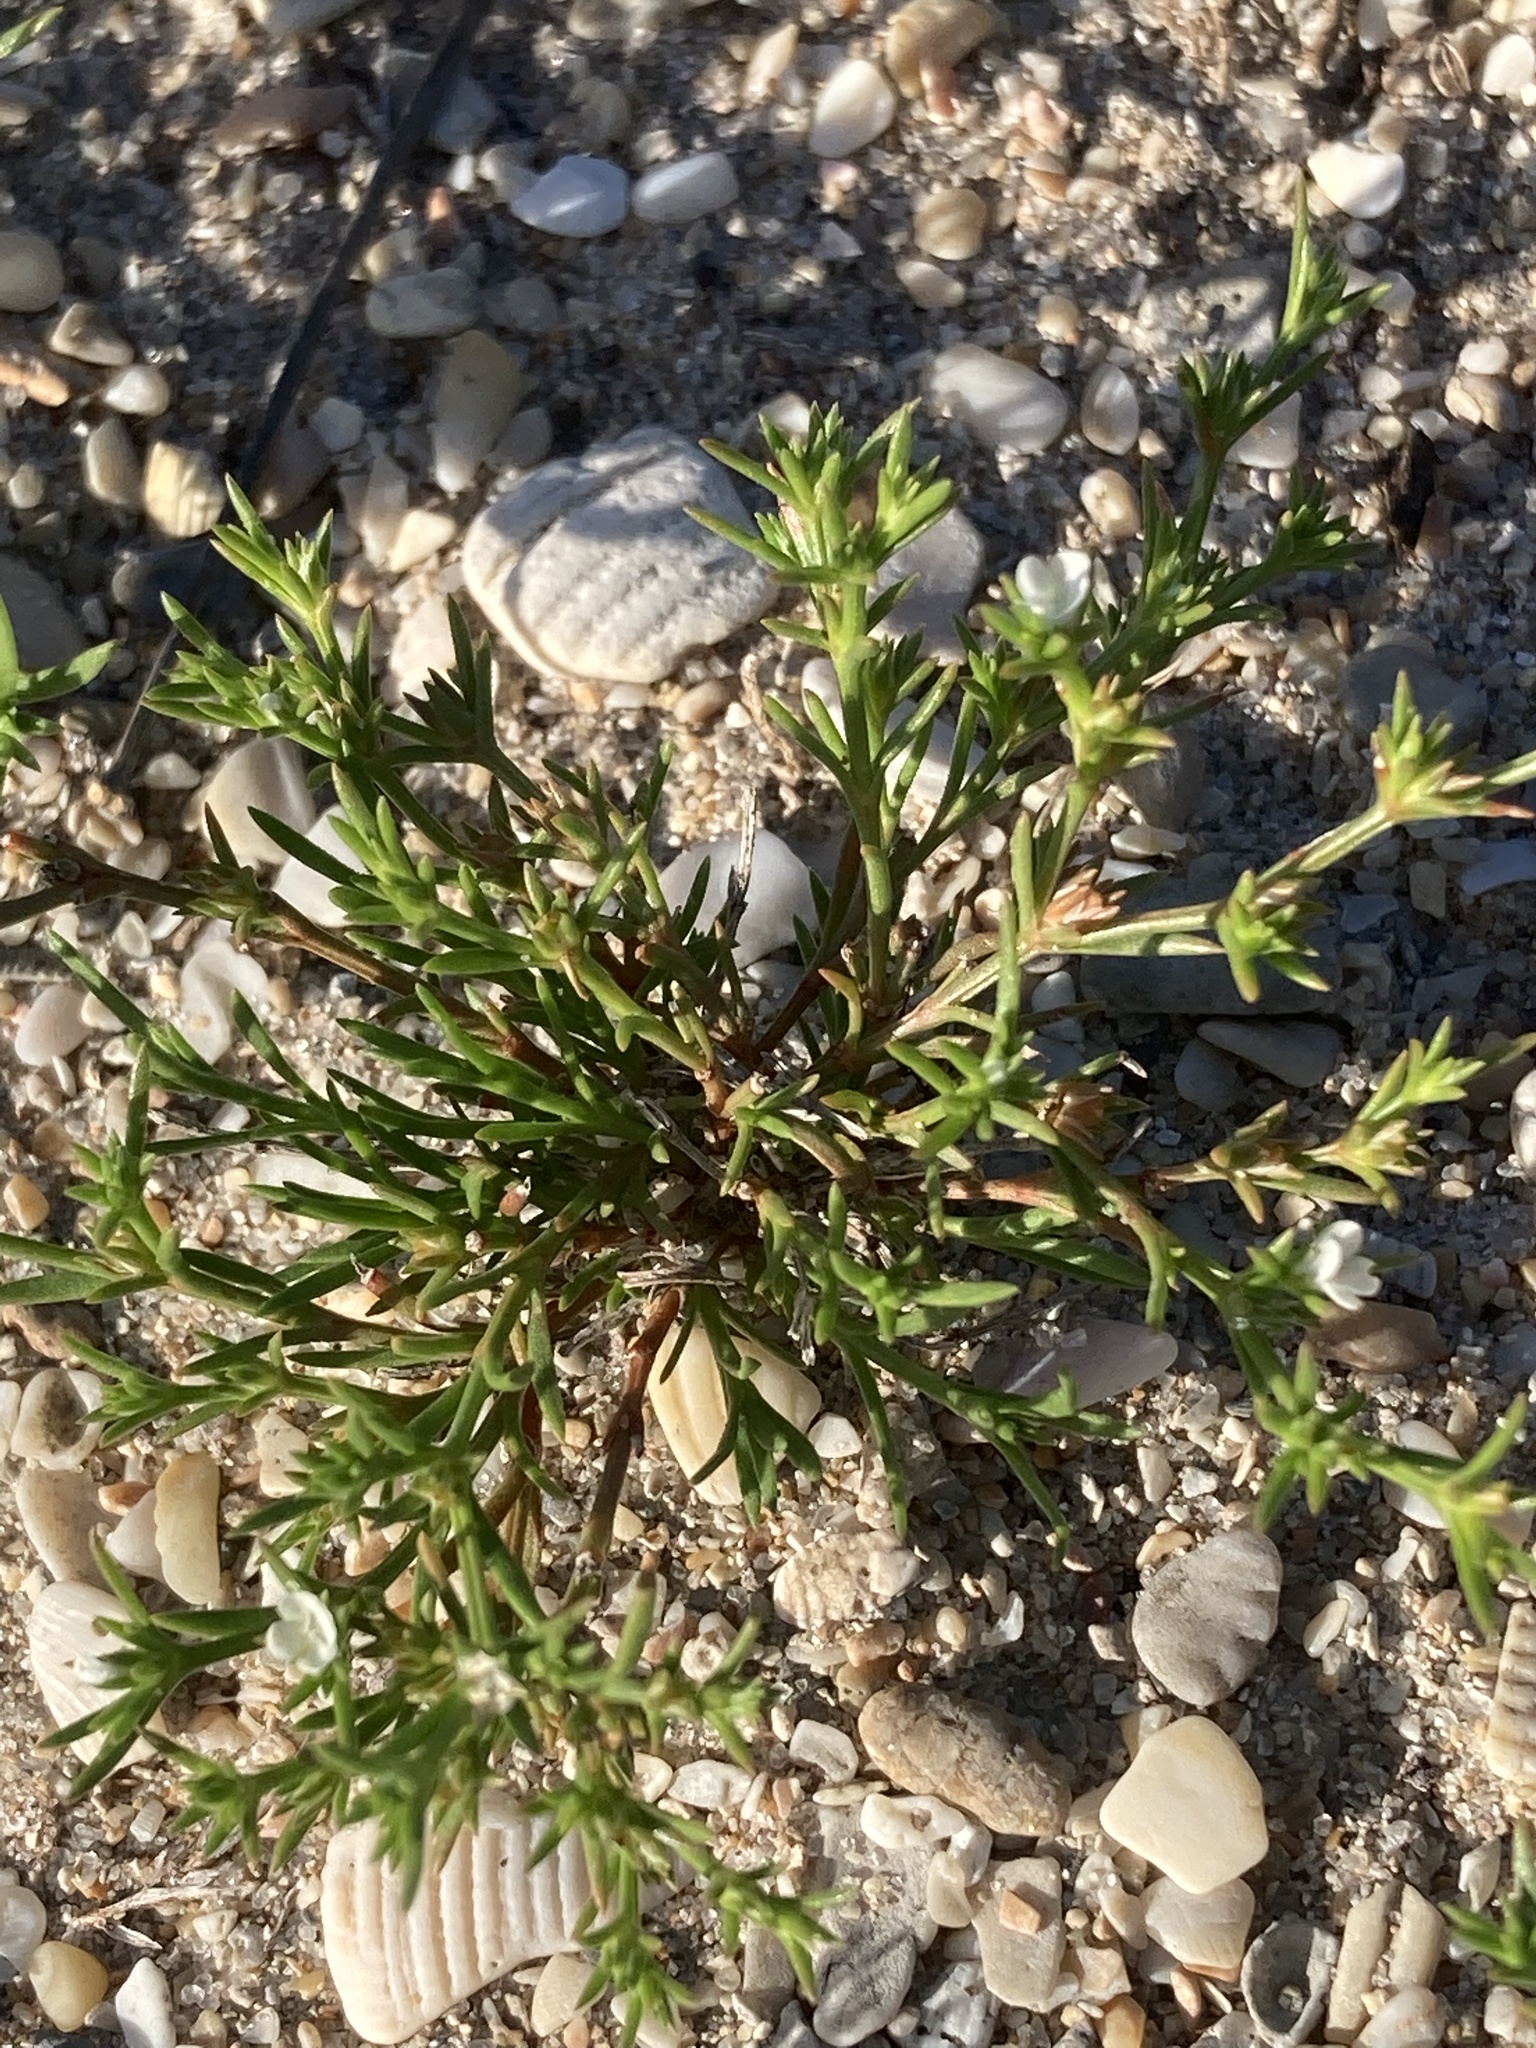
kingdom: Plantae
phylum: Tracheophyta
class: Magnoliopsida
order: Lamiales
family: Tetrachondraceae
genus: Polypremum
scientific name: Polypremum procumbens
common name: Juniper-leaf
